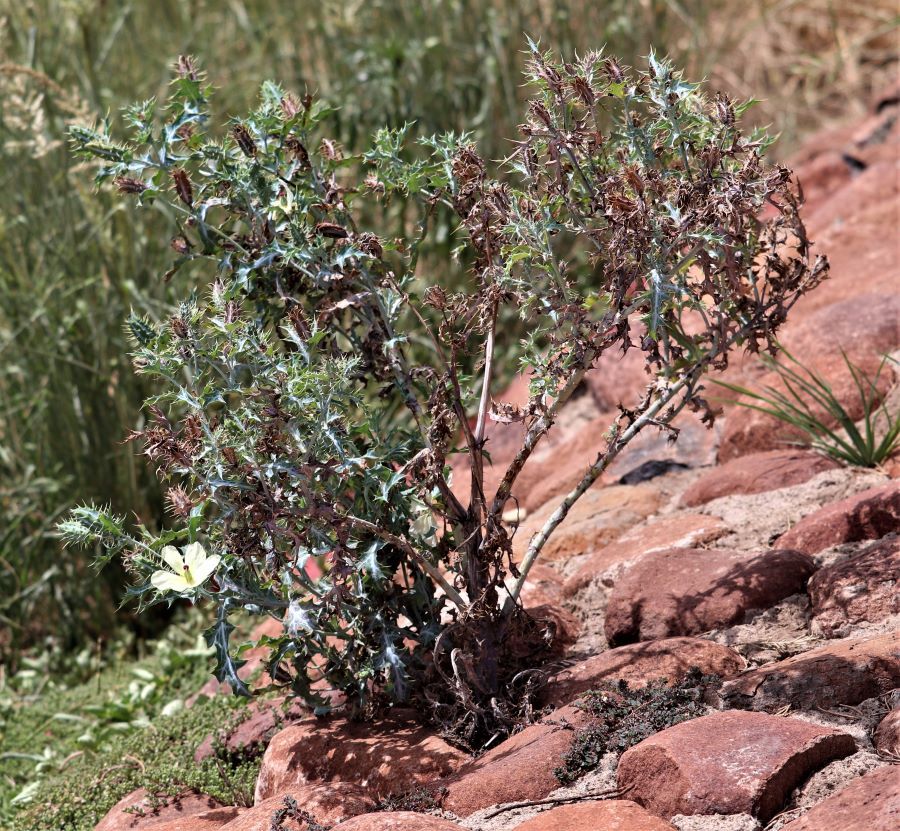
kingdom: Plantae
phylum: Tracheophyta
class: Magnoliopsida
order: Ranunculales
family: Papaveraceae
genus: Argemone
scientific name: Argemone ochroleuca
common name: White-flower mexican-poppy
